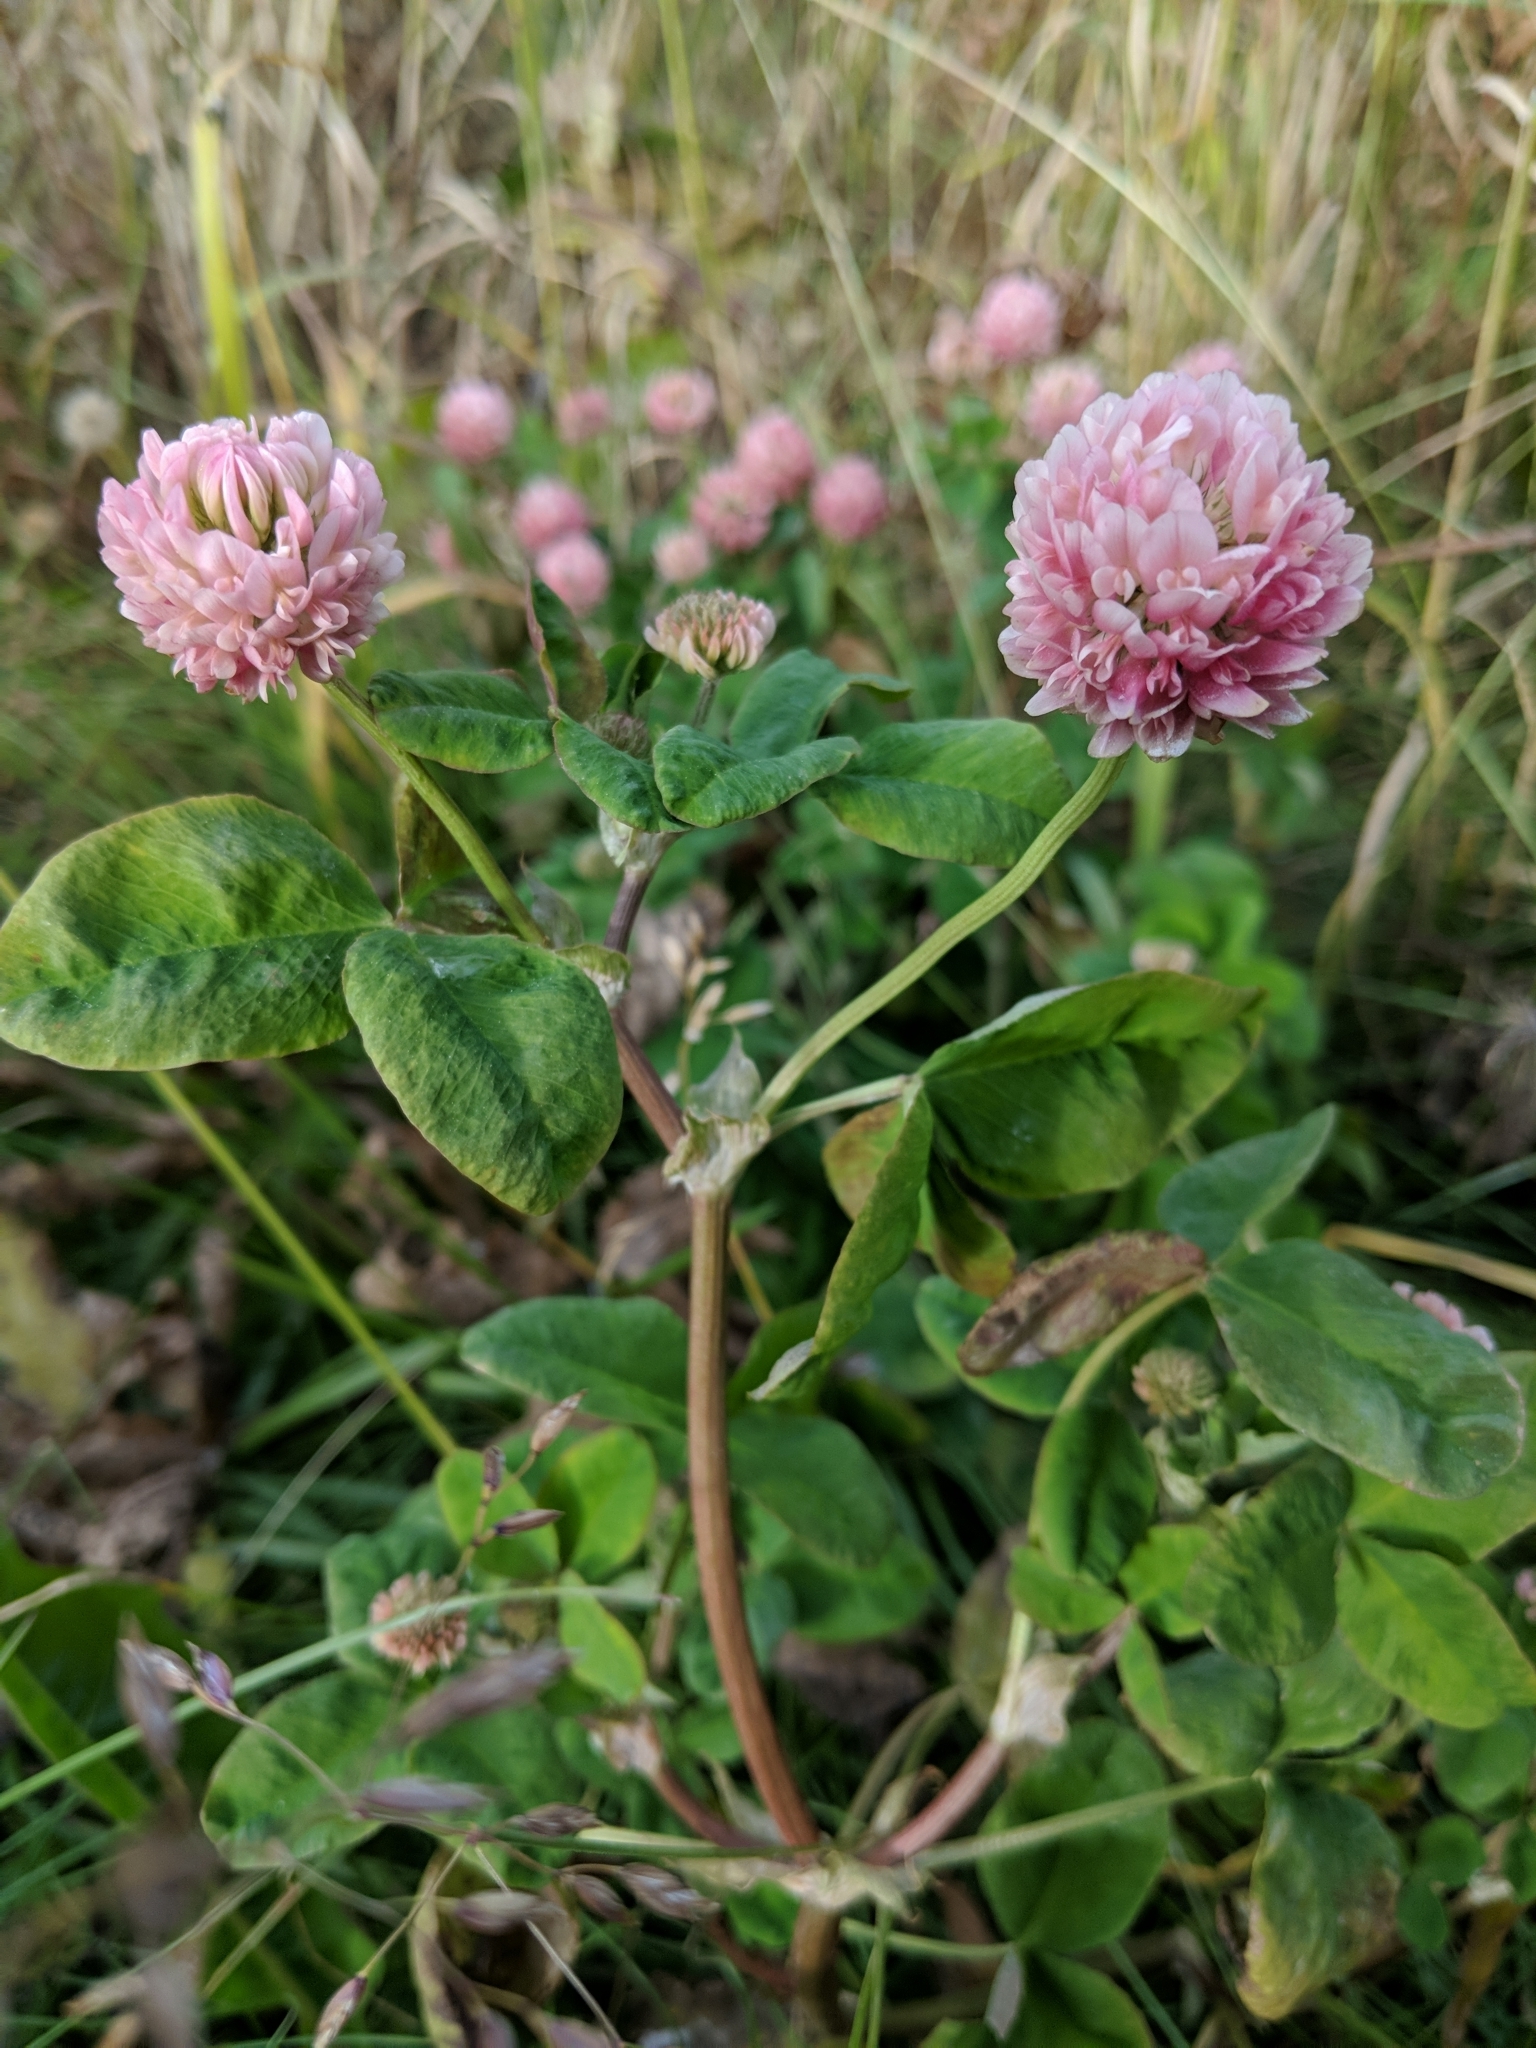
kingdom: Plantae
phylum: Tracheophyta
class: Magnoliopsida
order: Fabales
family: Fabaceae
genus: Trifolium
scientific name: Trifolium hybridum
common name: Alsike clover
